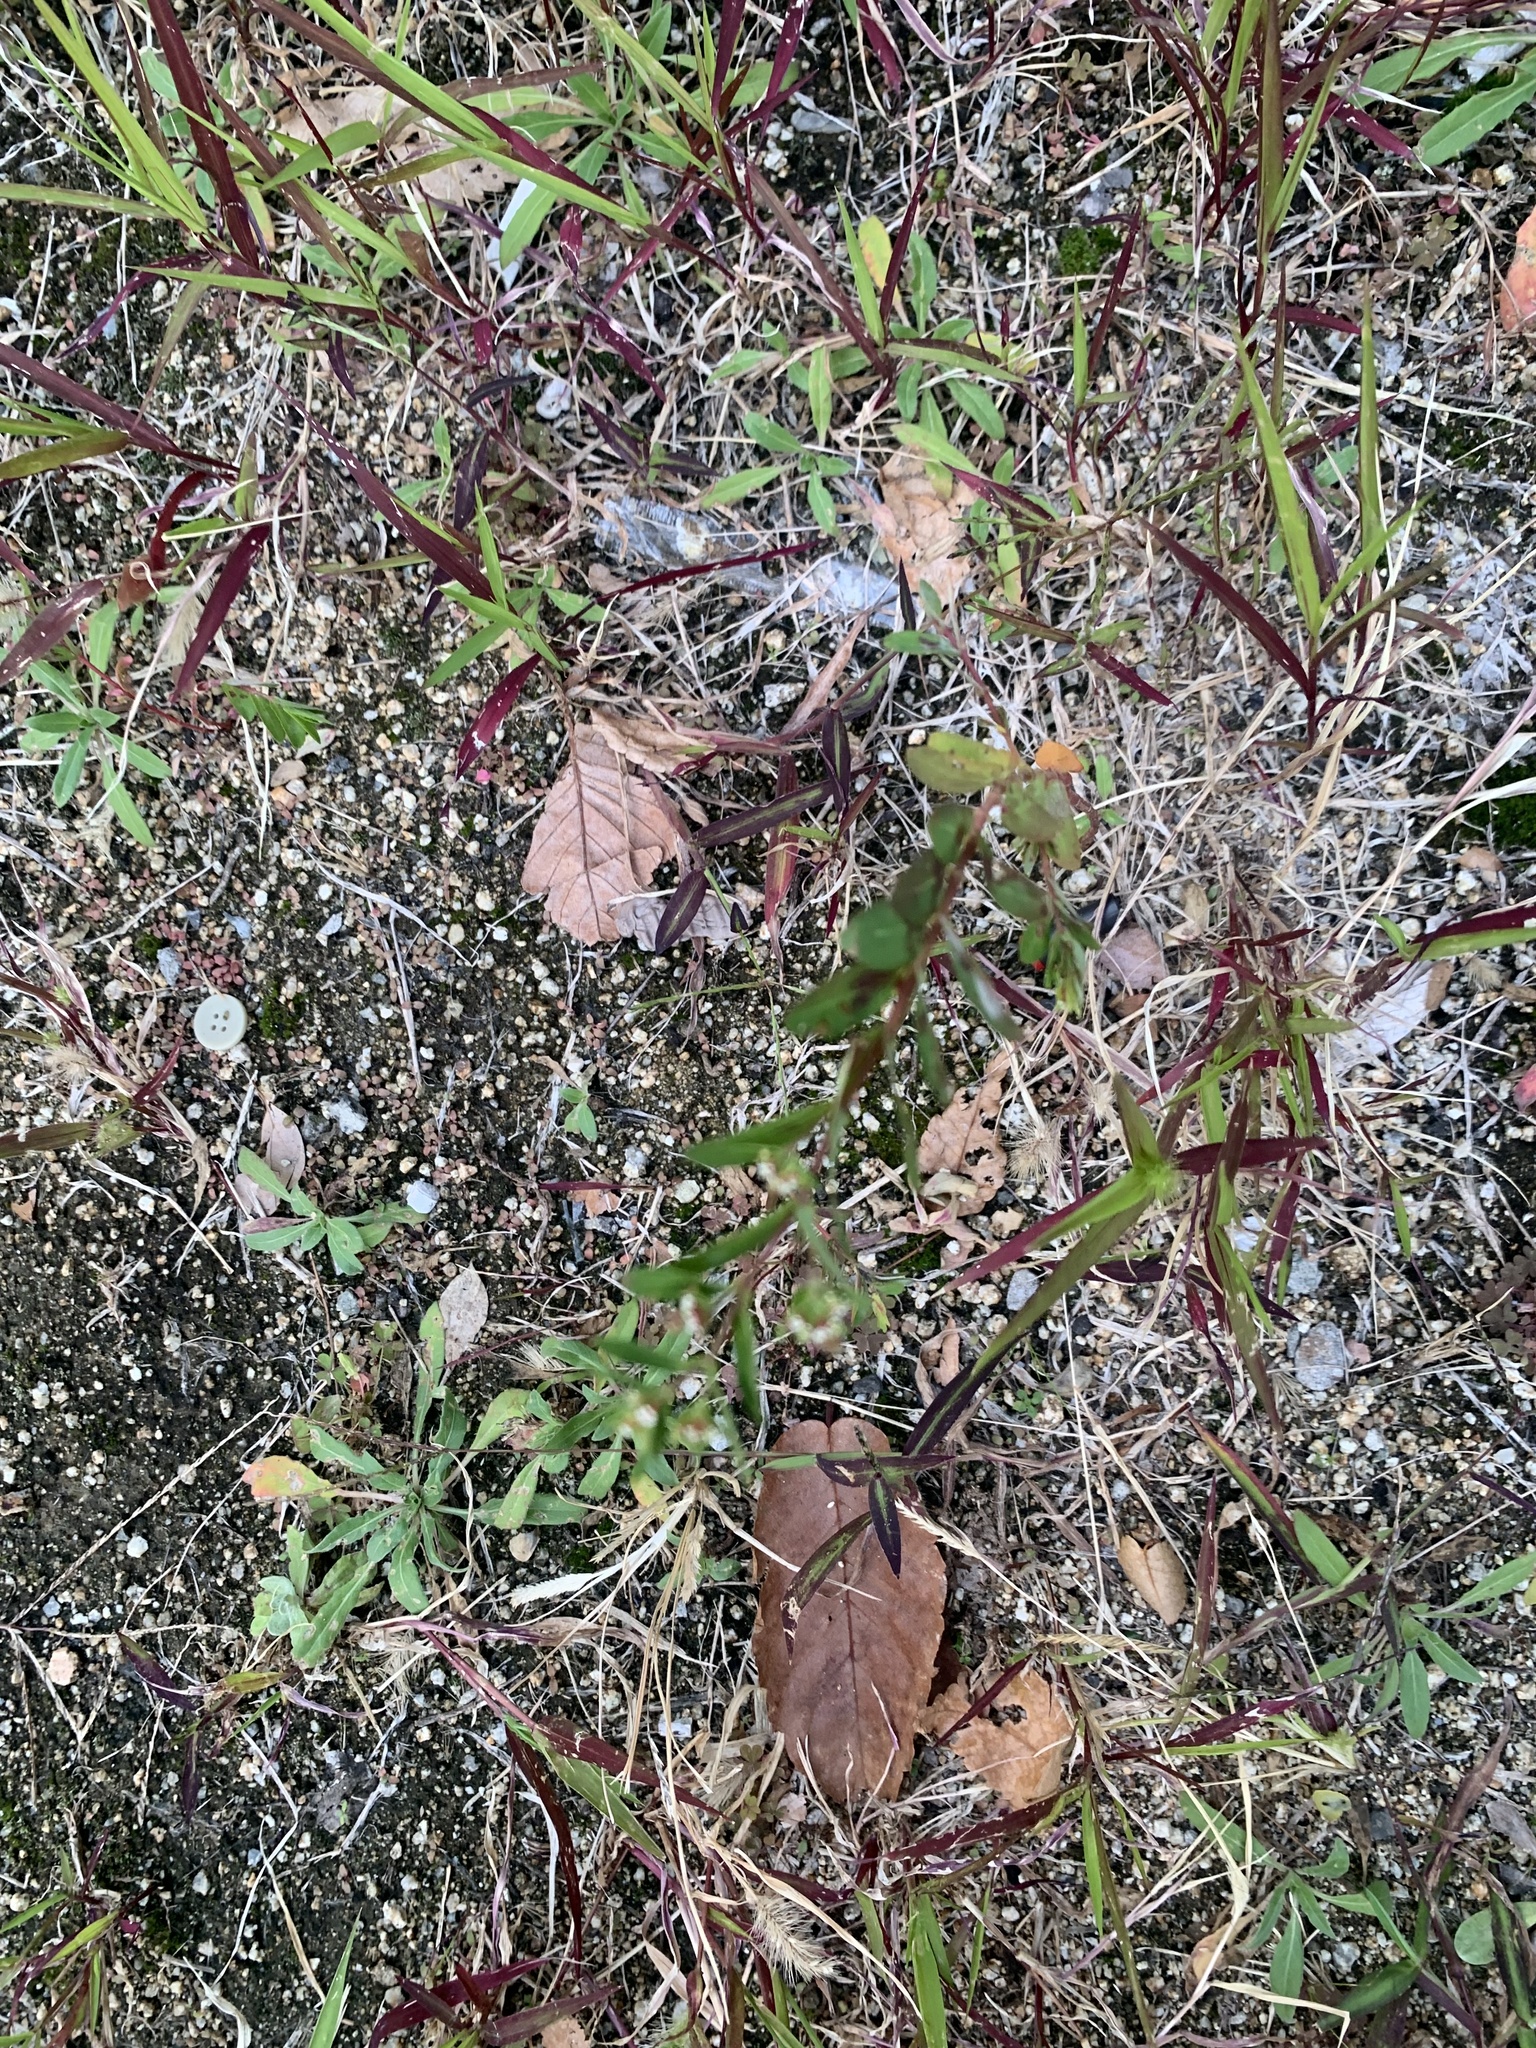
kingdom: Plantae
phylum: Tracheophyta
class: Magnoliopsida
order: Malpighiales
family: Euphorbiaceae
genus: Euphorbia
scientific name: Euphorbia nutans
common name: Eyebane
